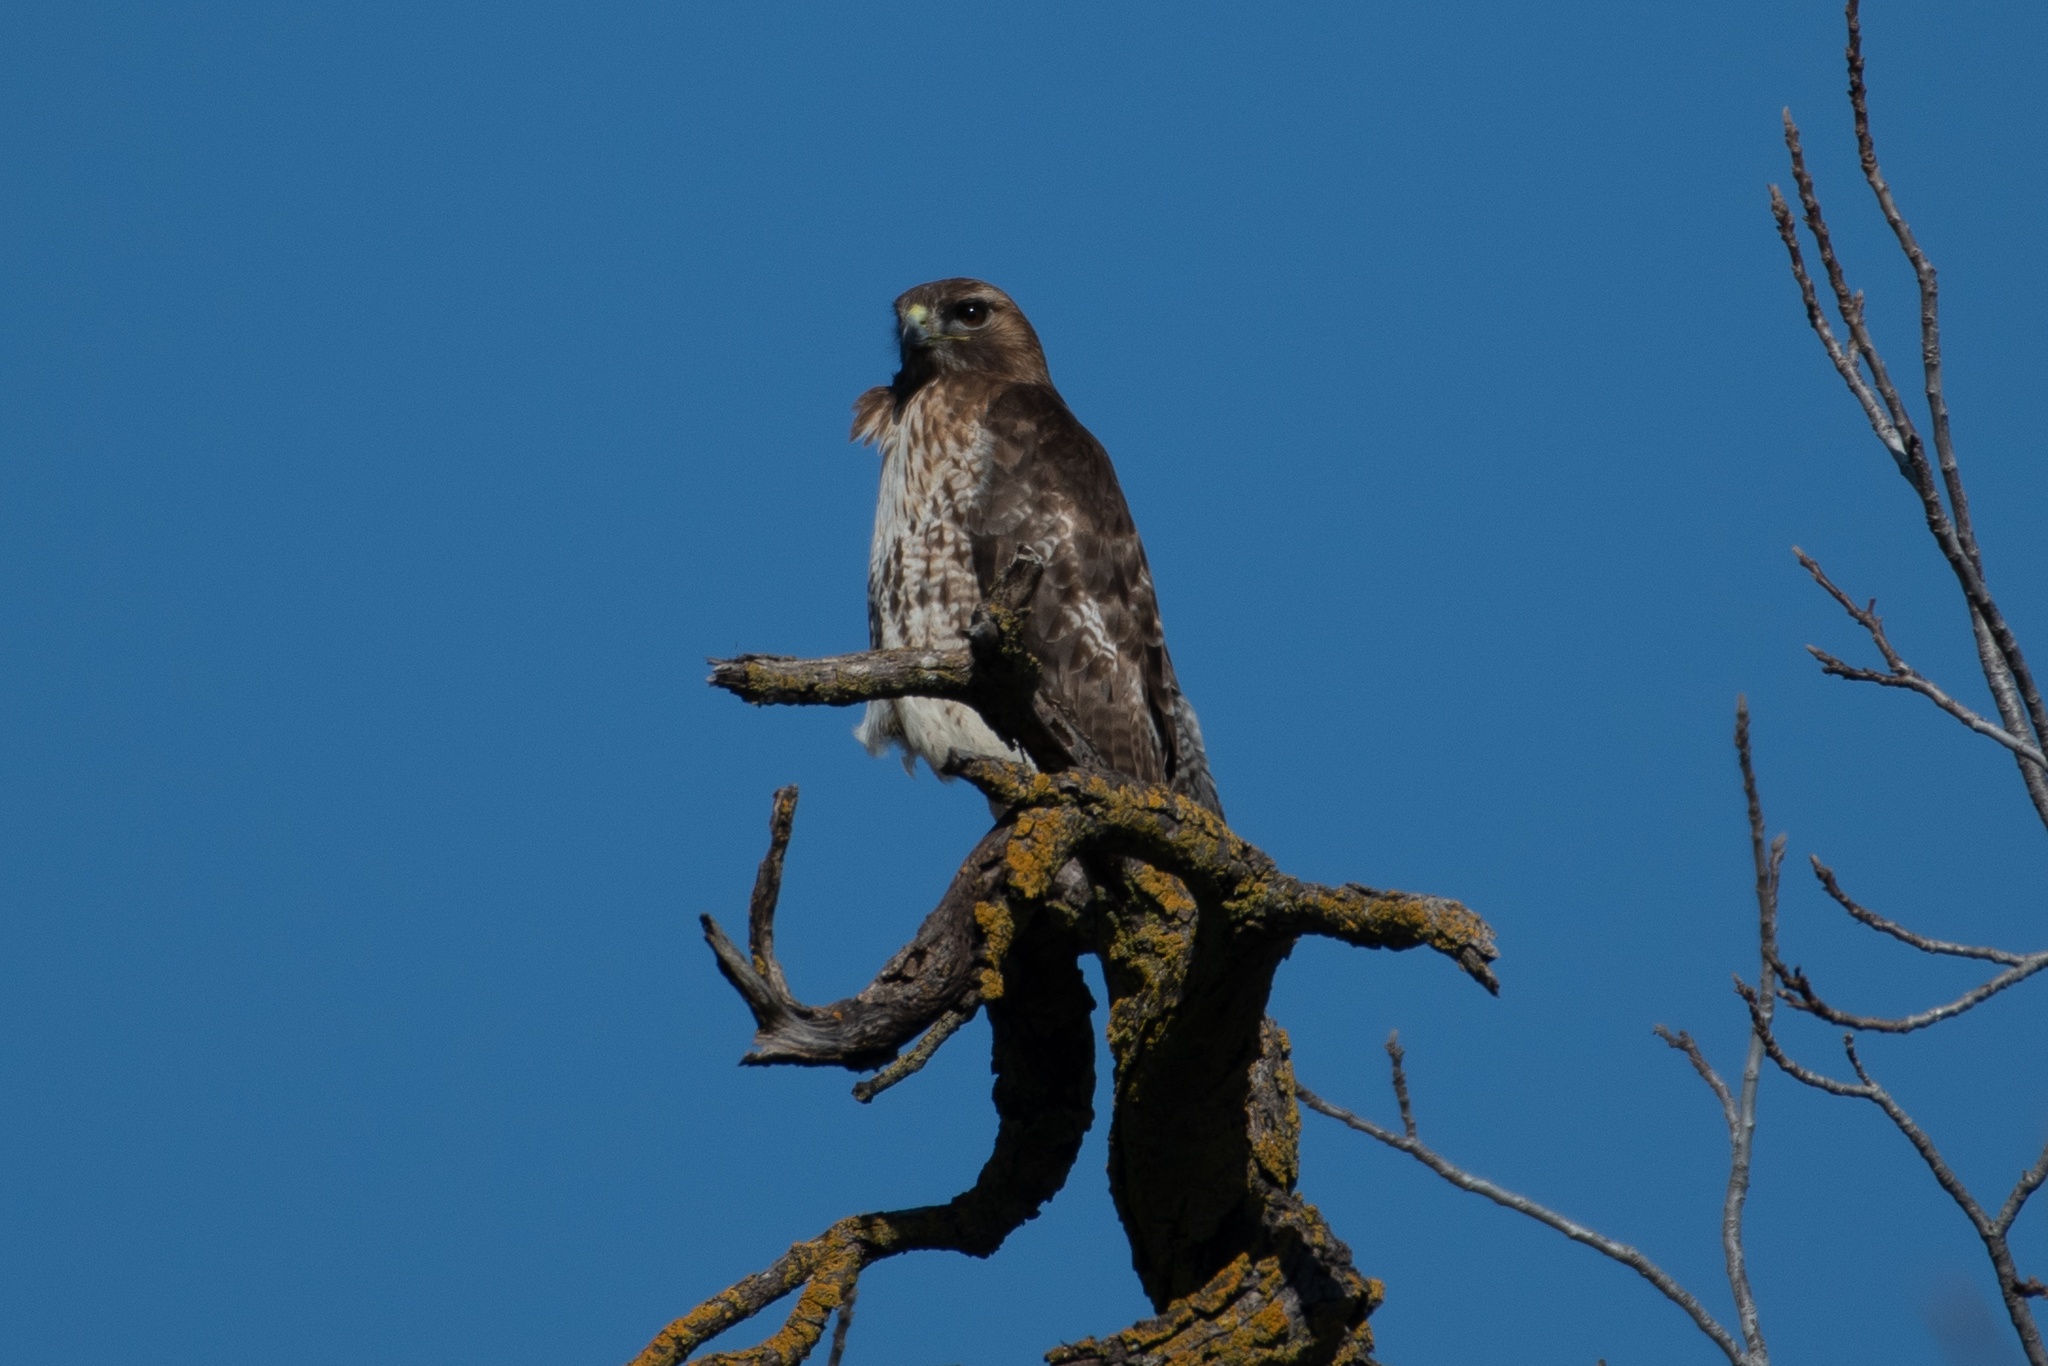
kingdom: Animalia
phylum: Chordata
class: Aves
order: Accipitriformes
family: Accipitridae
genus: Buteo
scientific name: Buteo jamaicensis
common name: Red-tailed hawk
